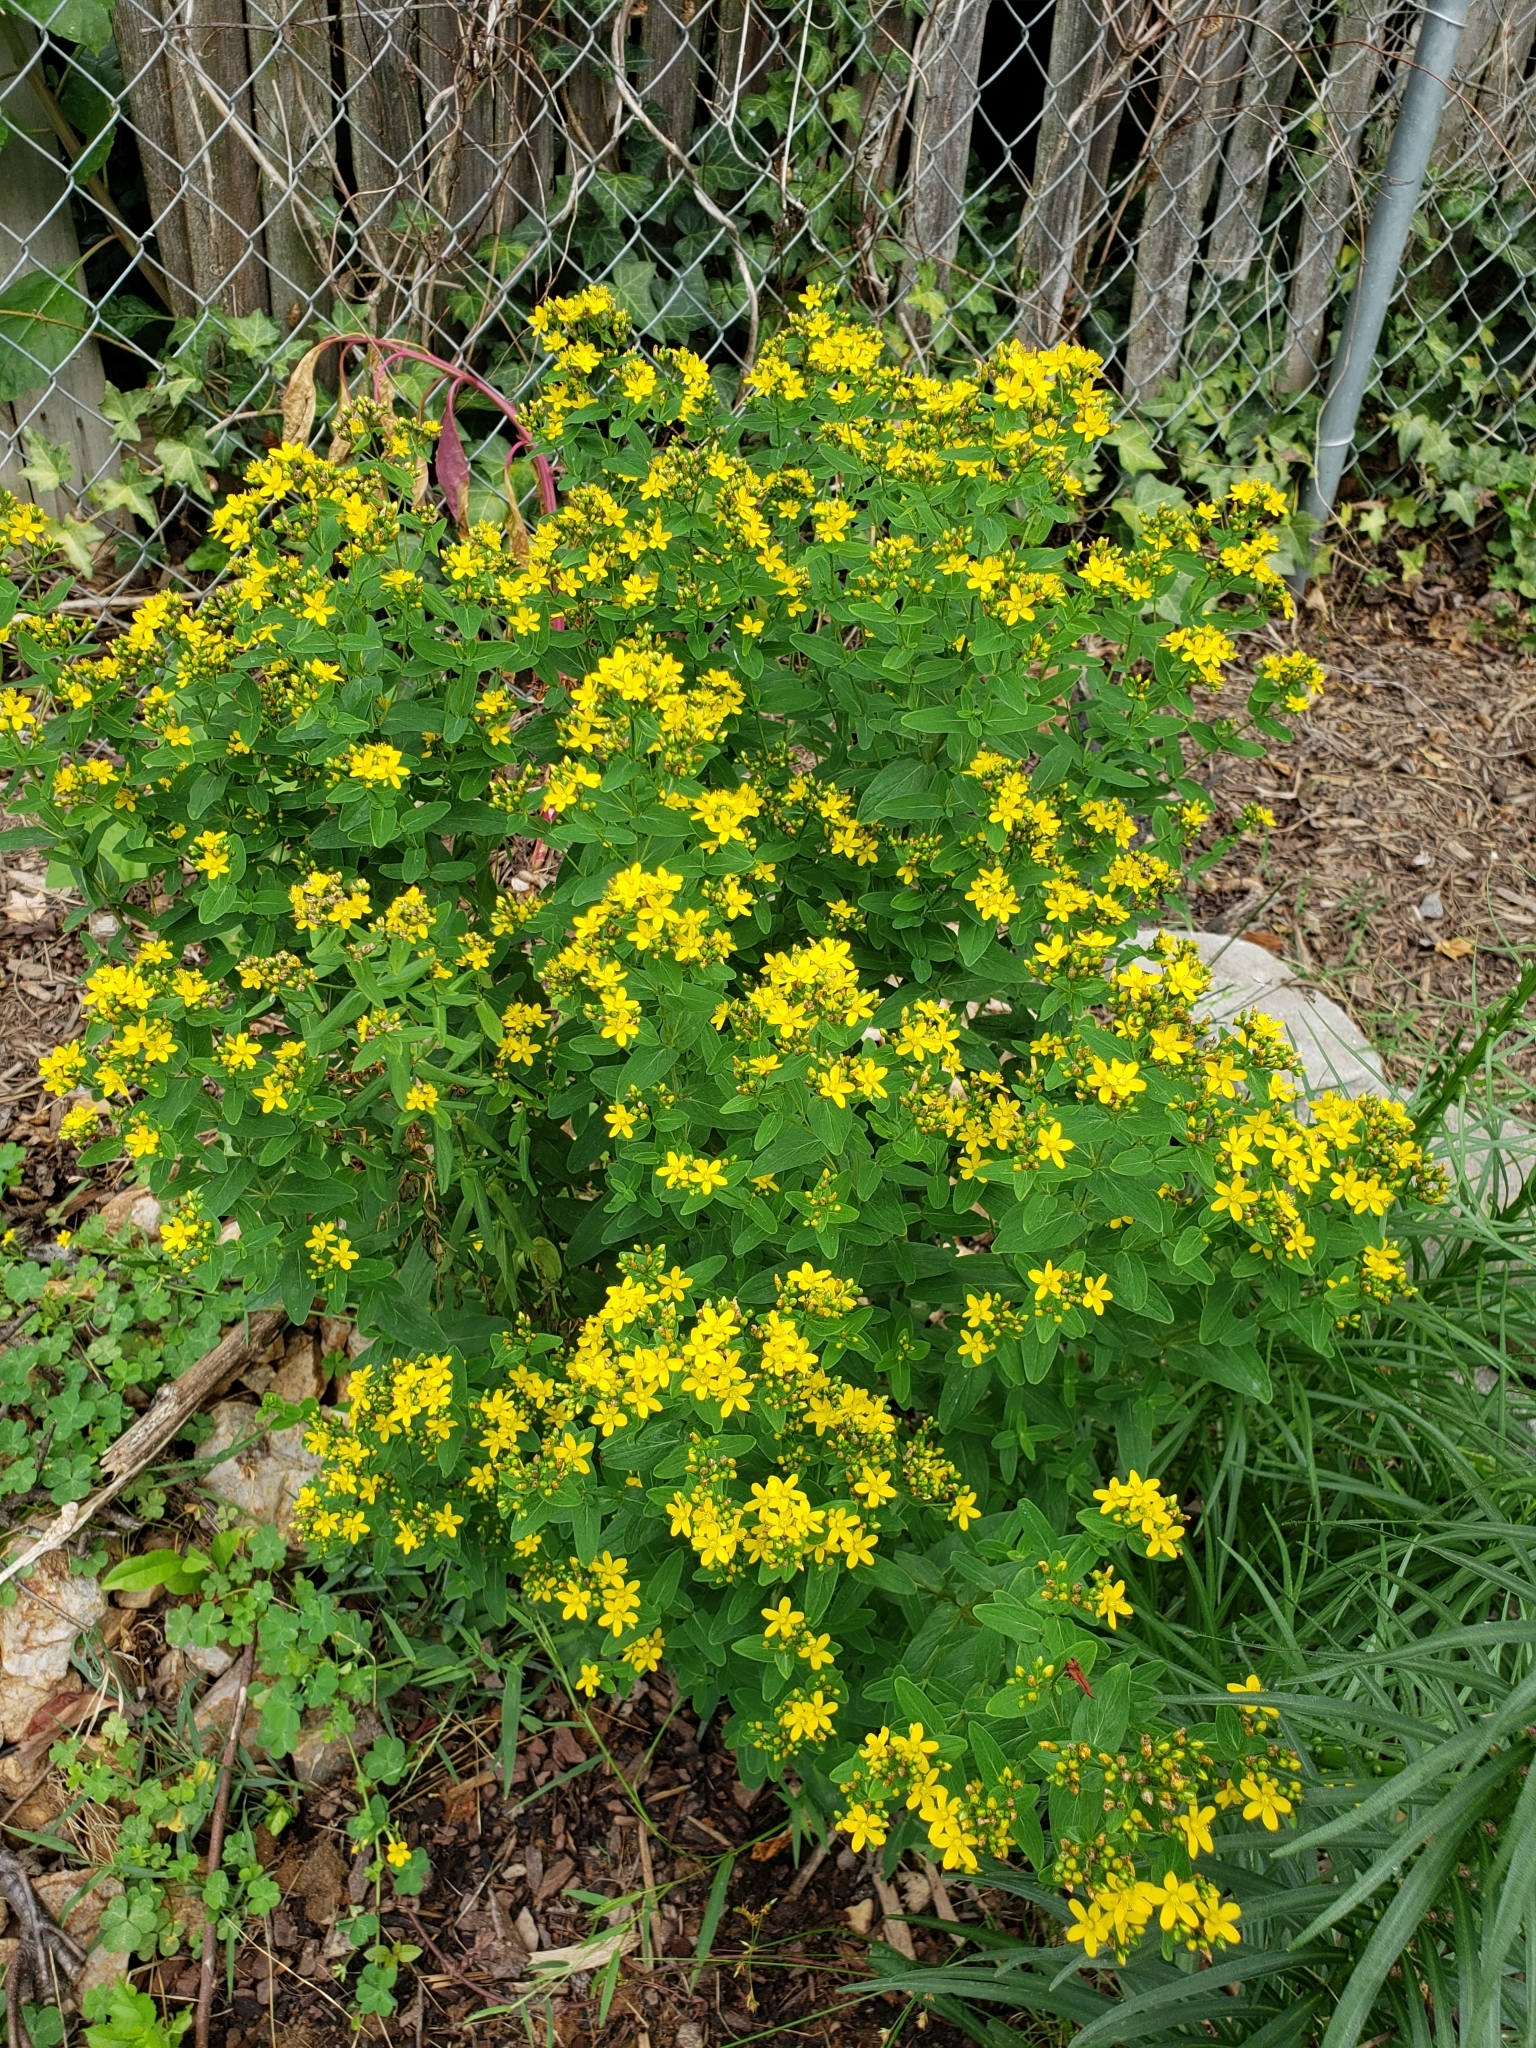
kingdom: Plantae
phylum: Tracheophyta
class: Magnoliopsida
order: Malpighiales
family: Hypericaceae
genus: Hypericum
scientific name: Hypericum perforatum
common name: Common st. johnswort
